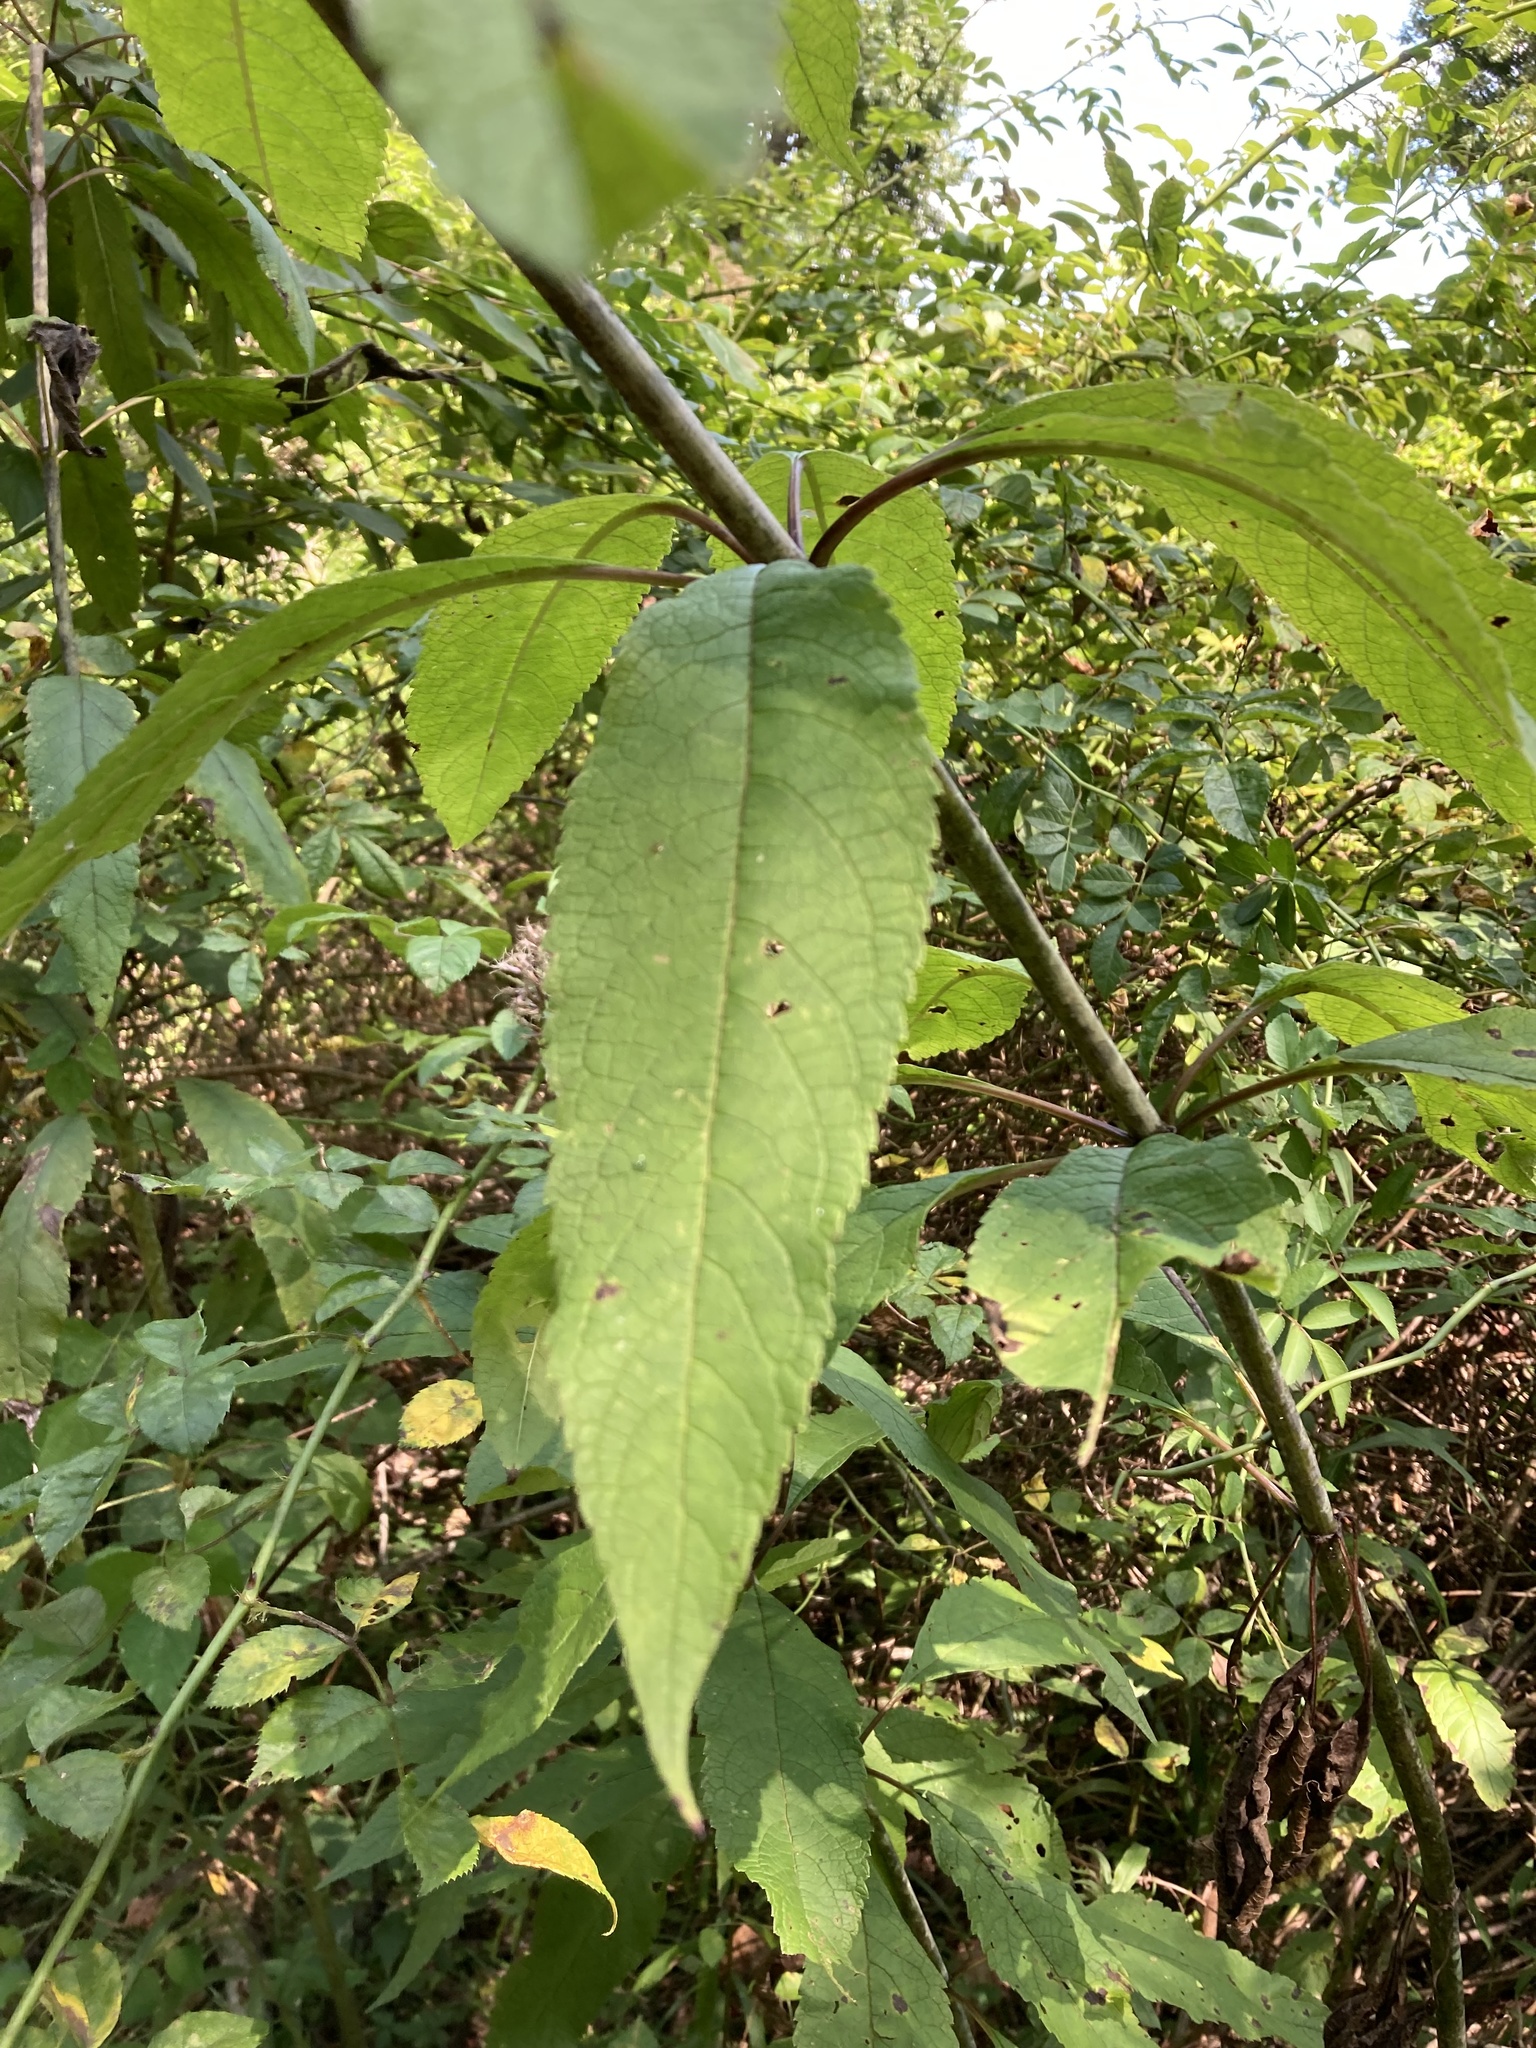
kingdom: Plantae
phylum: Tracheophyta
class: Magnoliopsida
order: Asterales
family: Asteraceae
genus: Eutrochium
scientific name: Eutrochium fistulosum
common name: Trumpetweed
